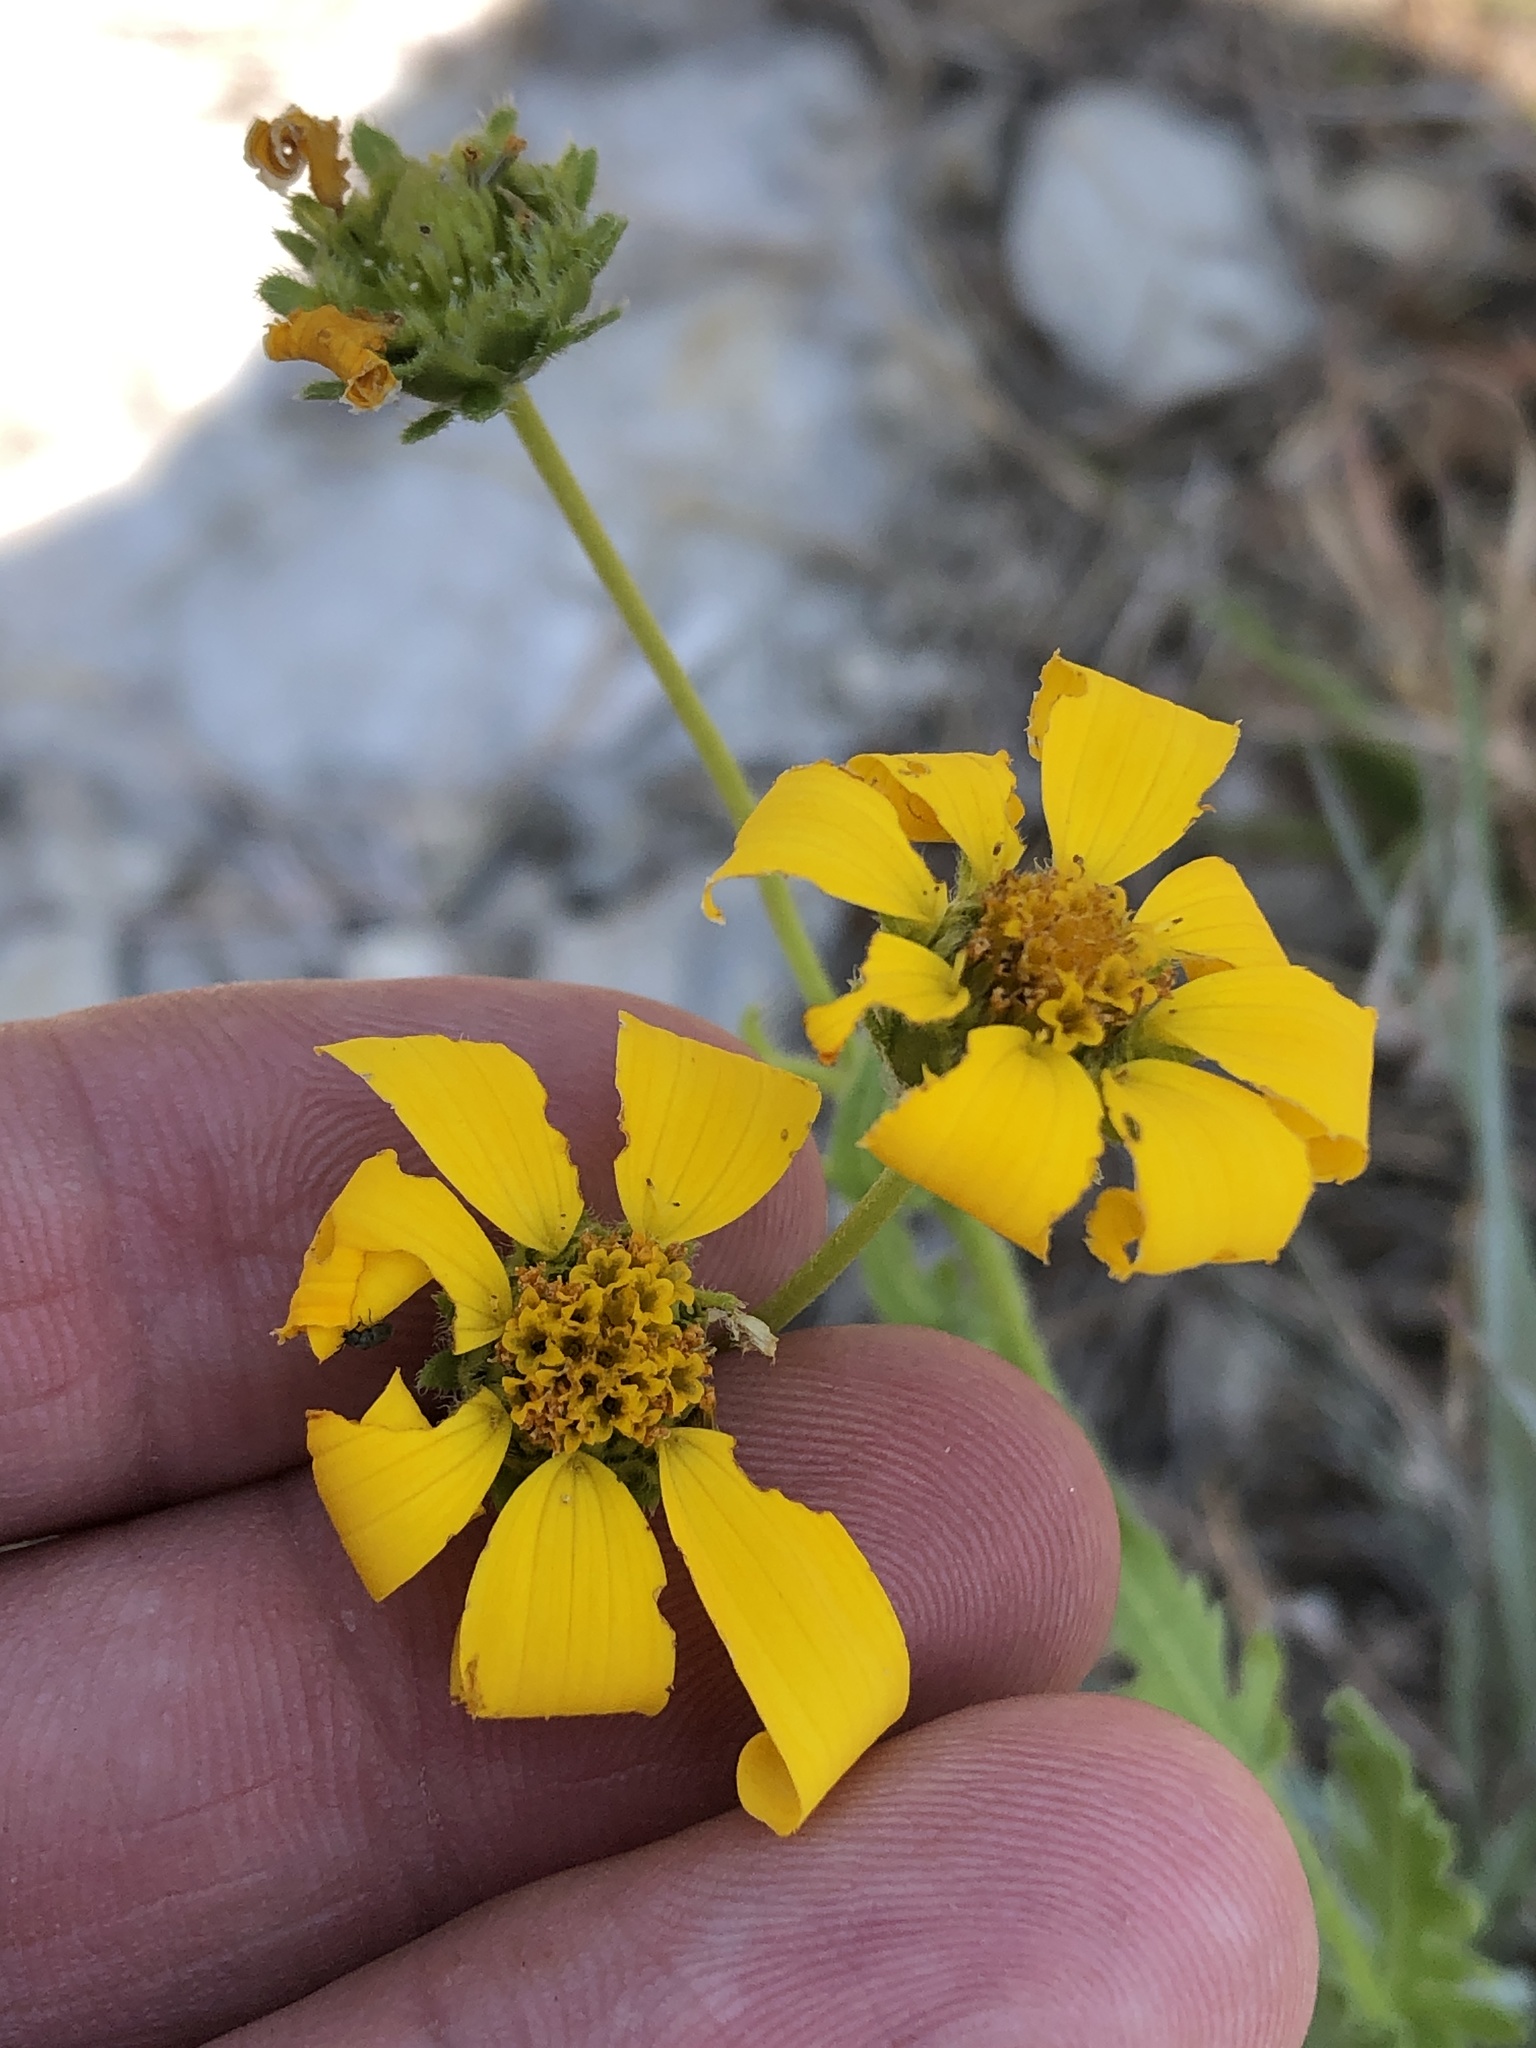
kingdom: Plantae
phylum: Tracheophyta
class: Magnoliopsida
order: Asterales
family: Asteraceae
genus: Engelmannia
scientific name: Engelmannia peristenia
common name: Engelmann's daisy
